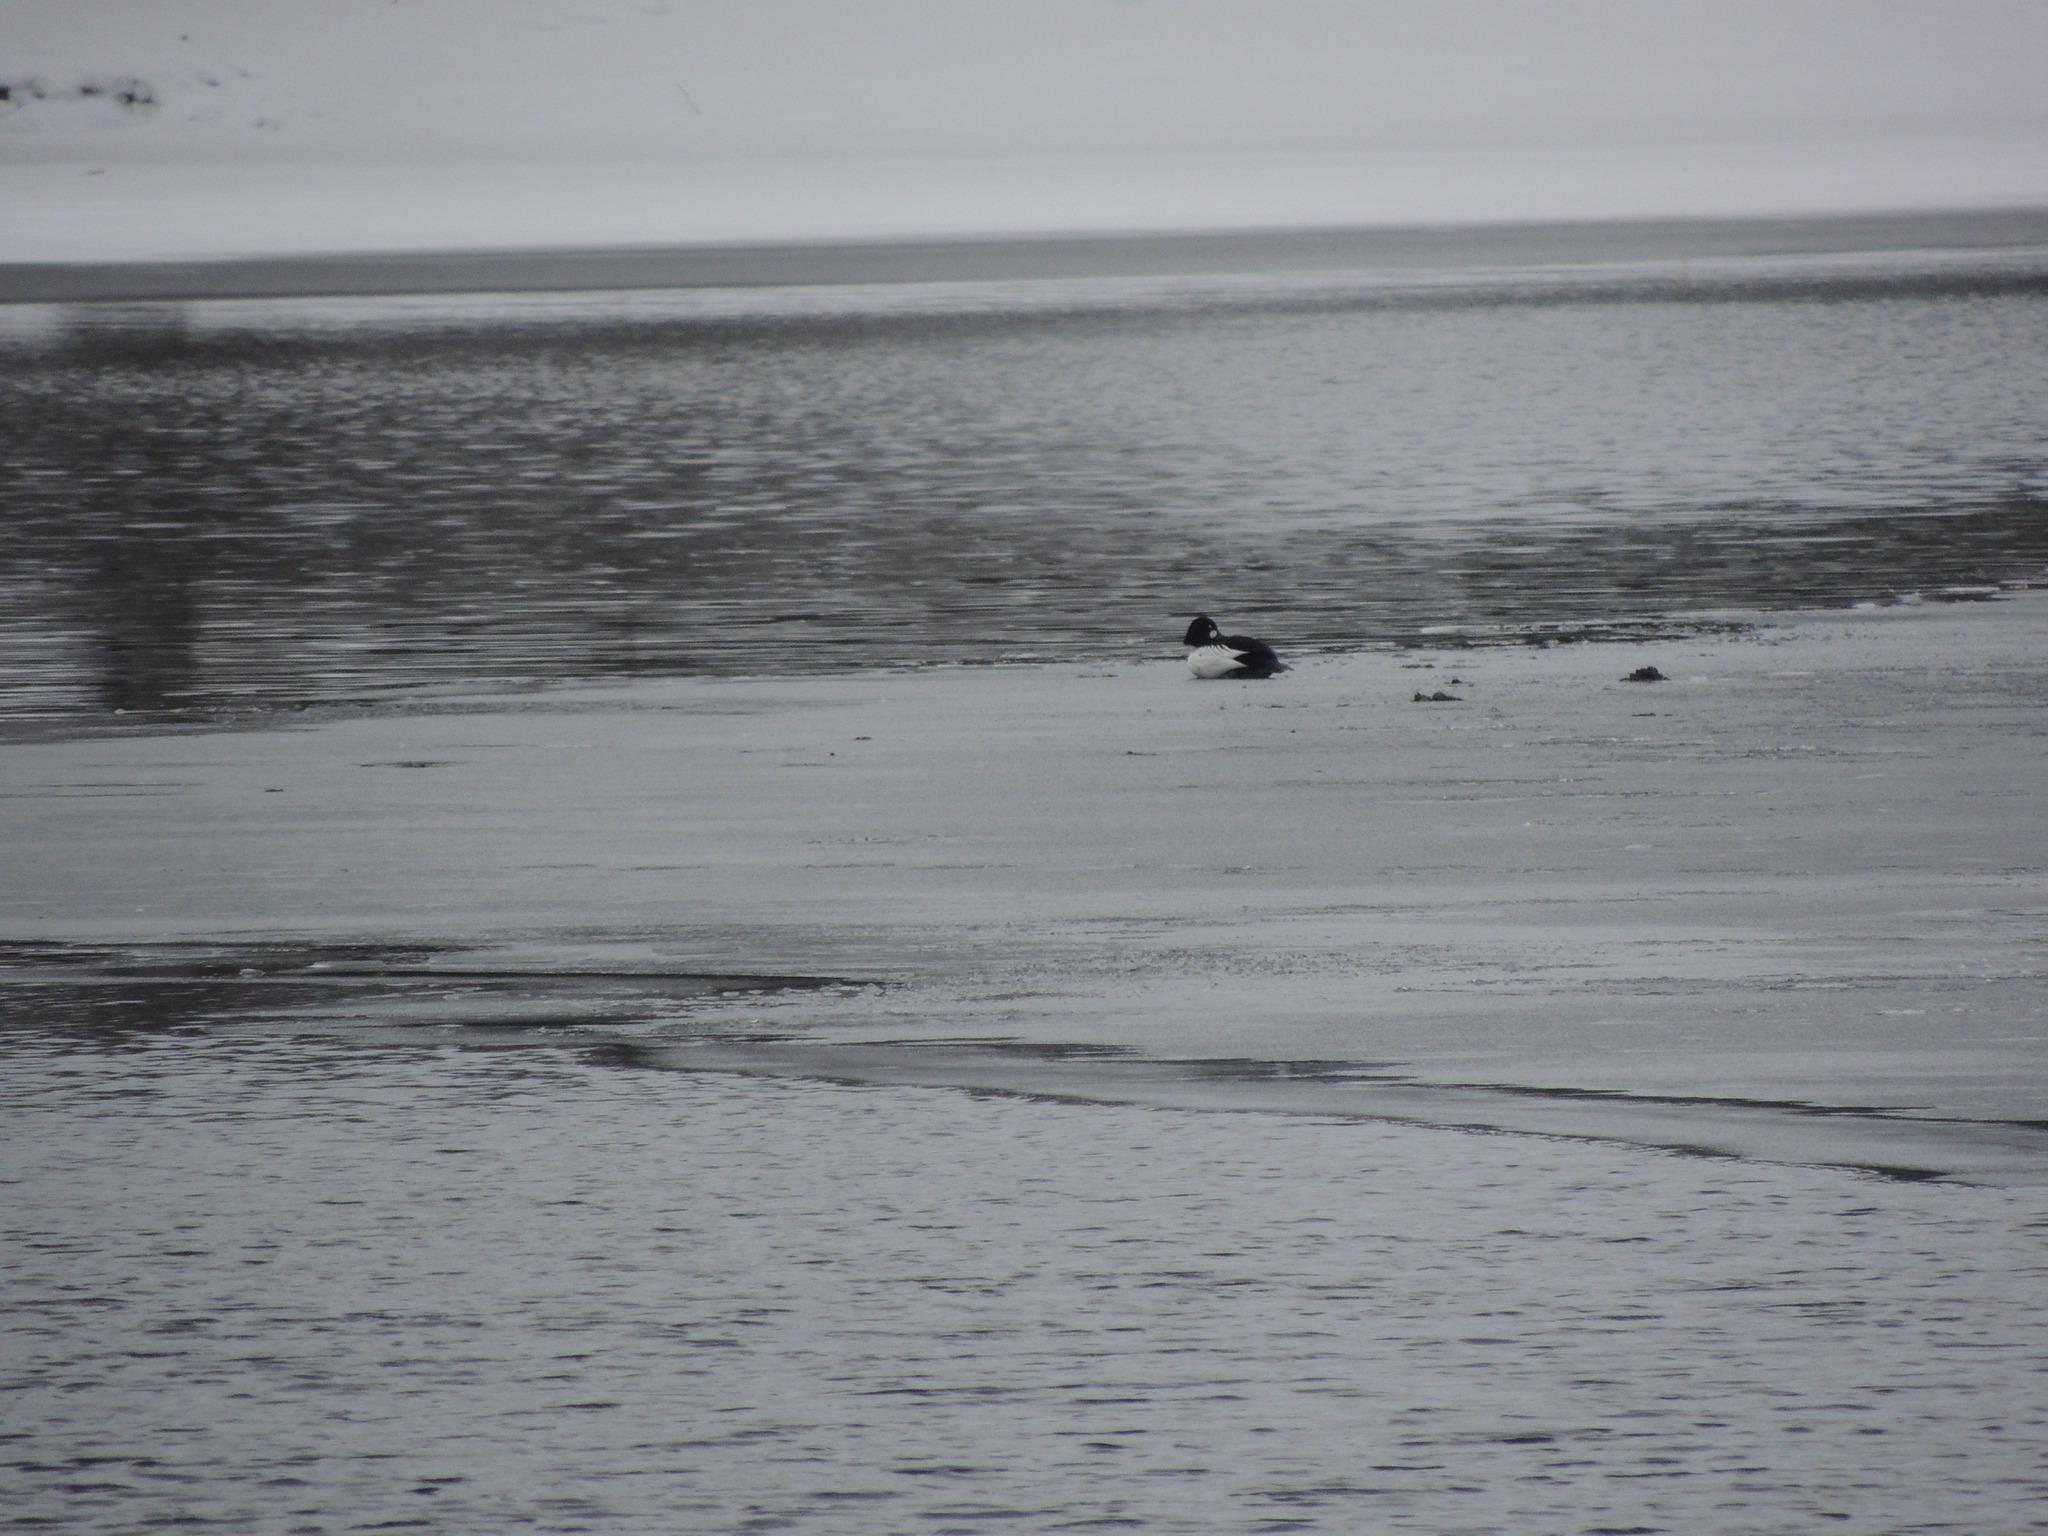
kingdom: Animalia
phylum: Chordata
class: Aves
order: Anseriformes
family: Anatidae
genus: Bucephala
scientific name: Bucephala clangula
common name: Common goldeneye
